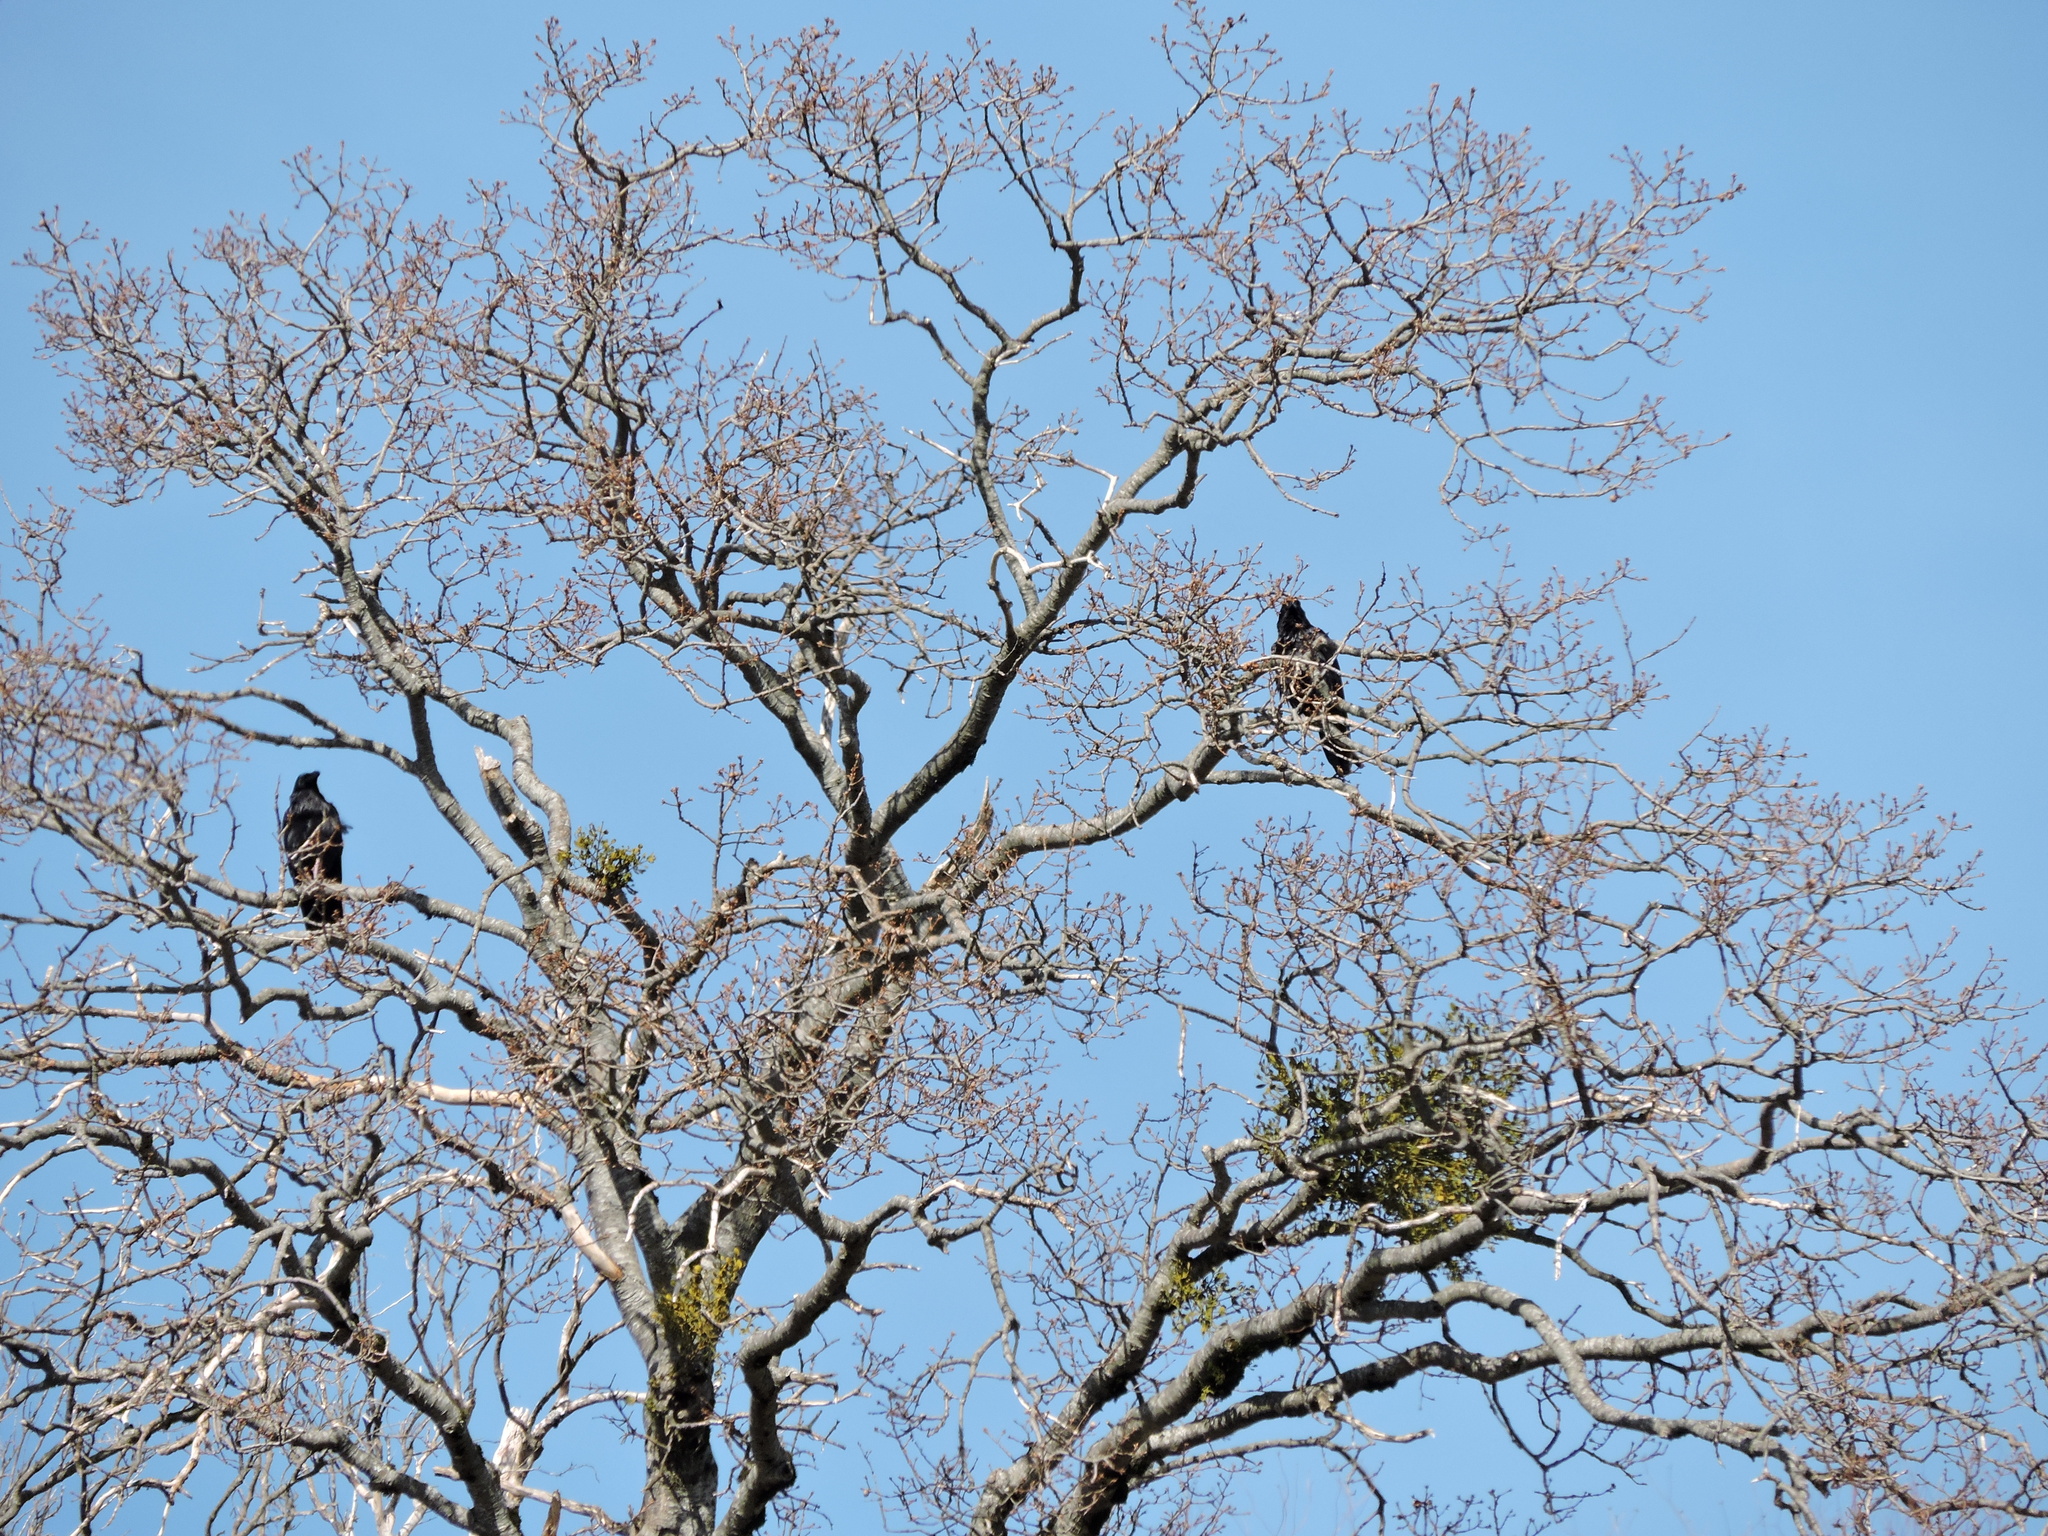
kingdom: Animalia
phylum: Chordata
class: Aves
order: Passeriformes
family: Corvidae
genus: Corvus
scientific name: Corvus corax
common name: Common raven
